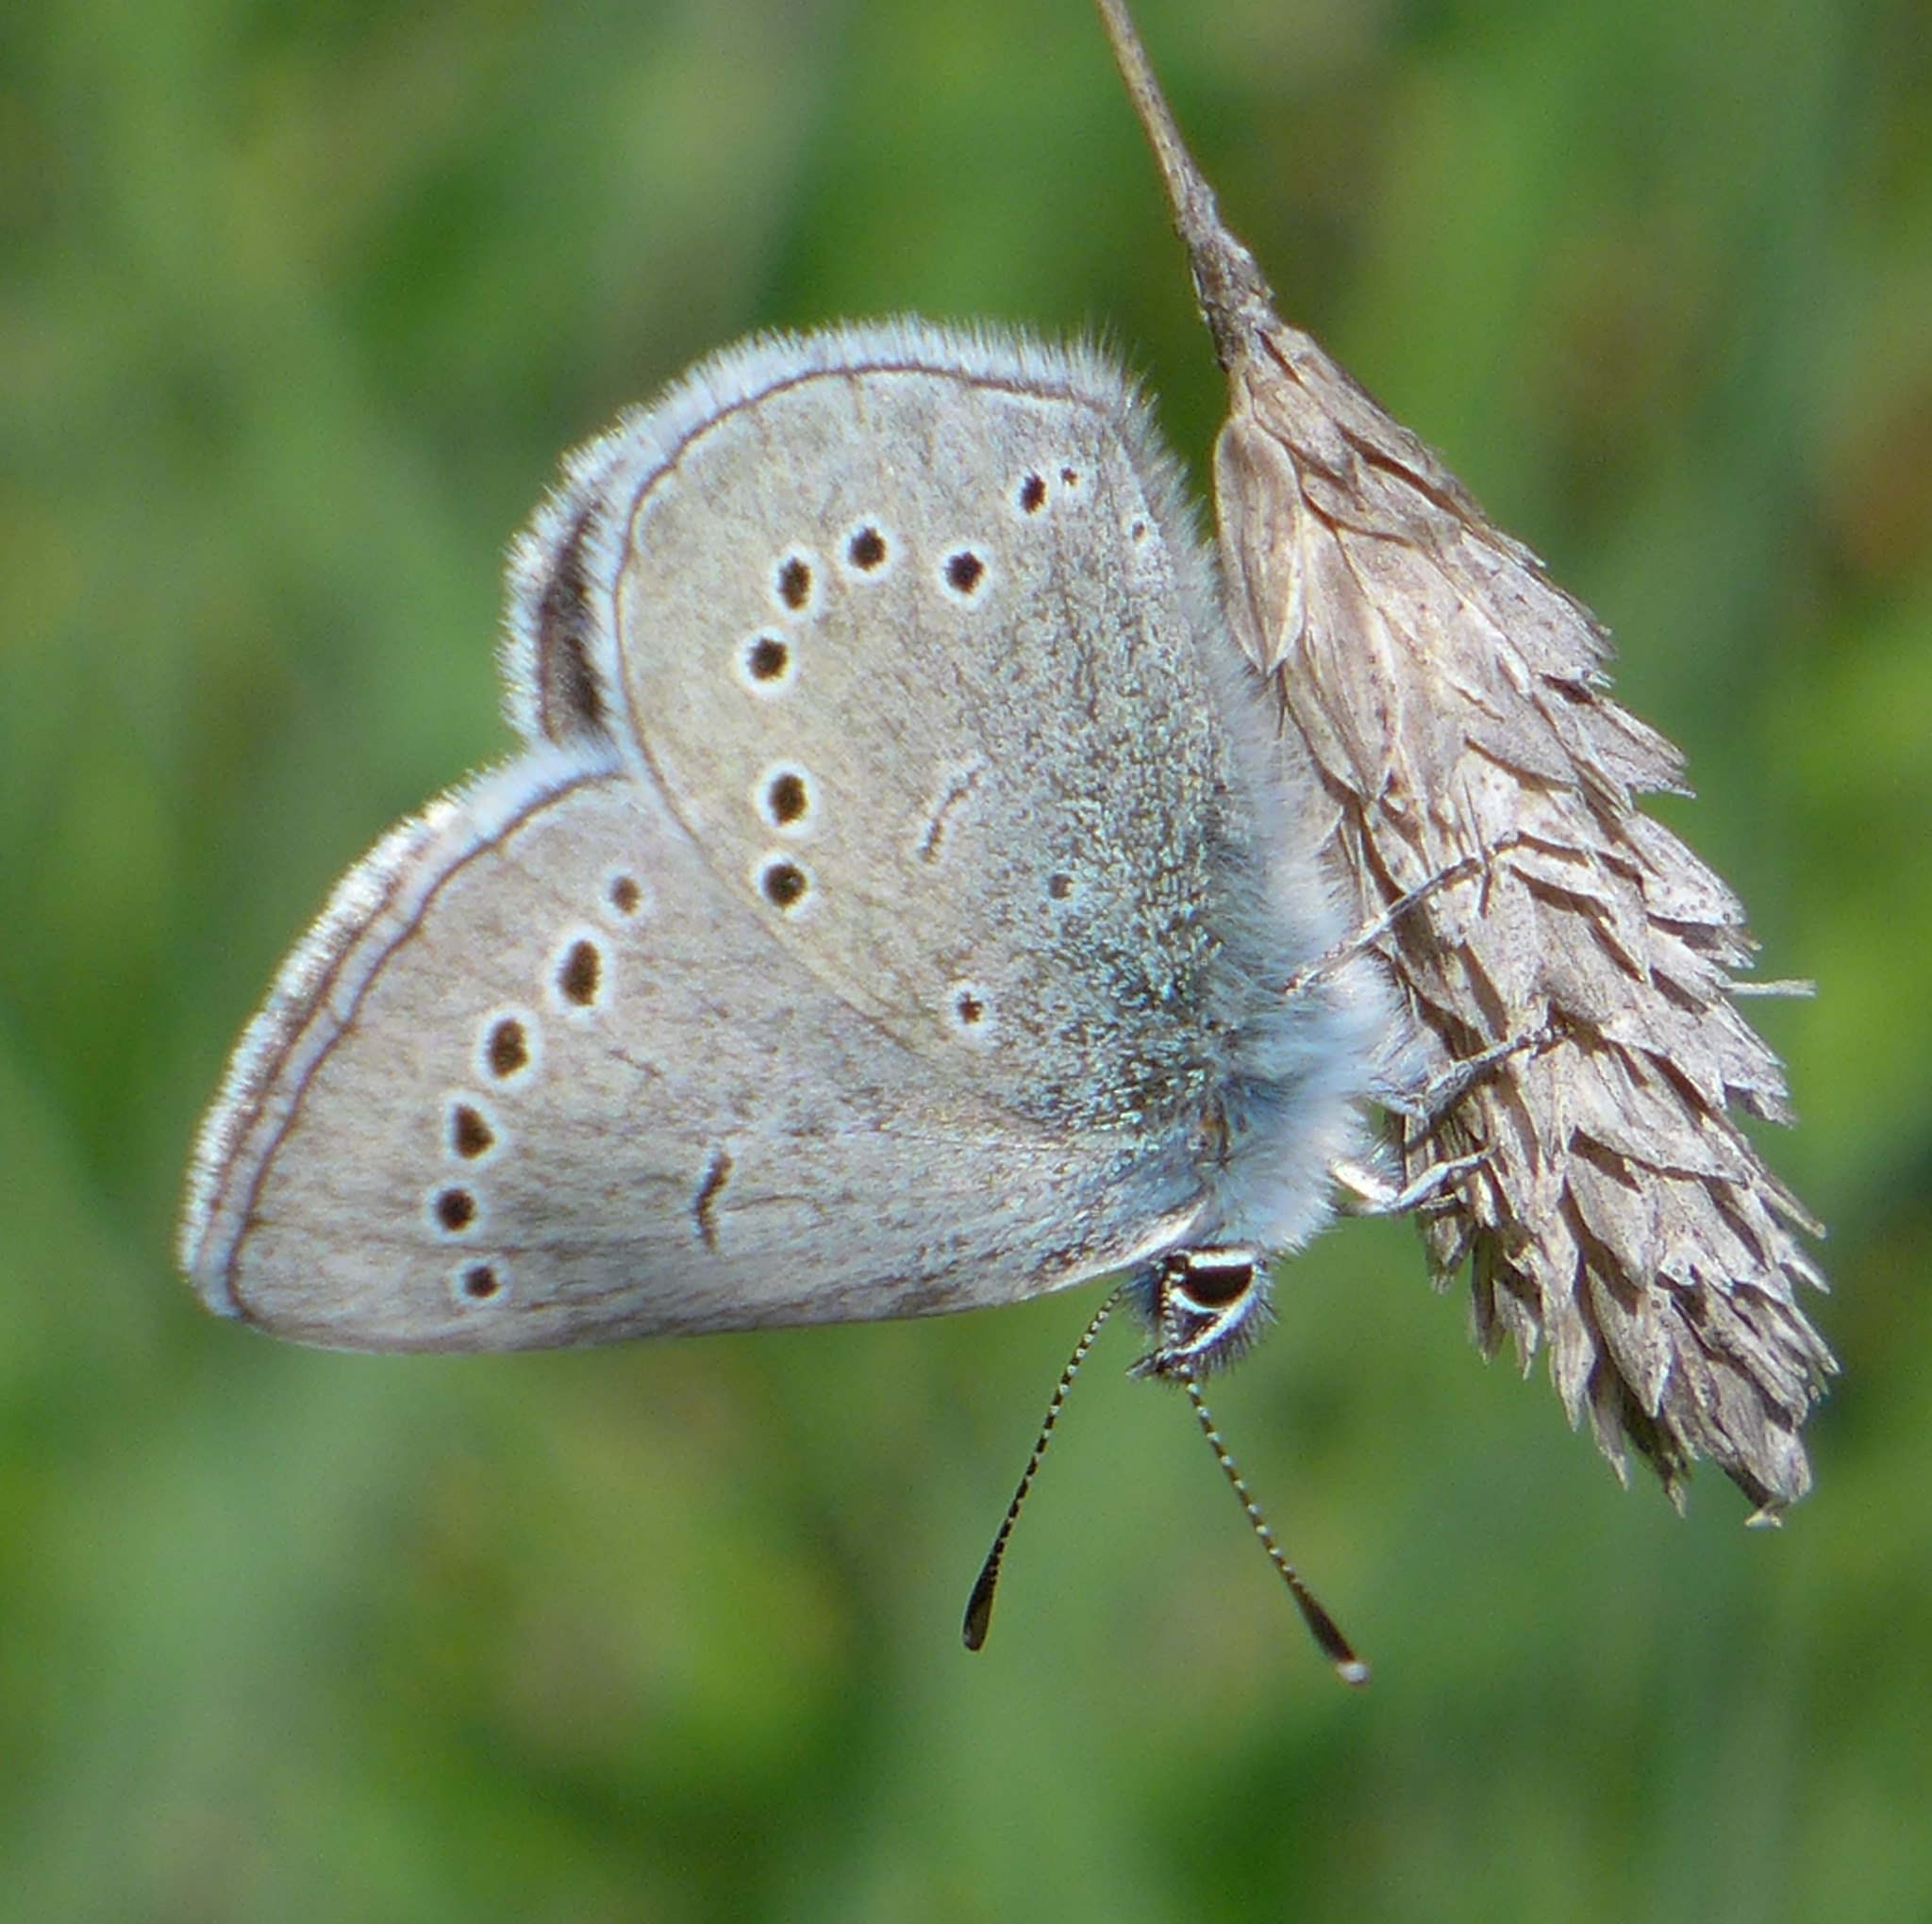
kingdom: Animalia
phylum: Arthropoda
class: Insecta
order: Lepidoptera
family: Lycaenidae
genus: Glaucopsyche
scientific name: Glaucopsyche lygdamus
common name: Silvery blue
